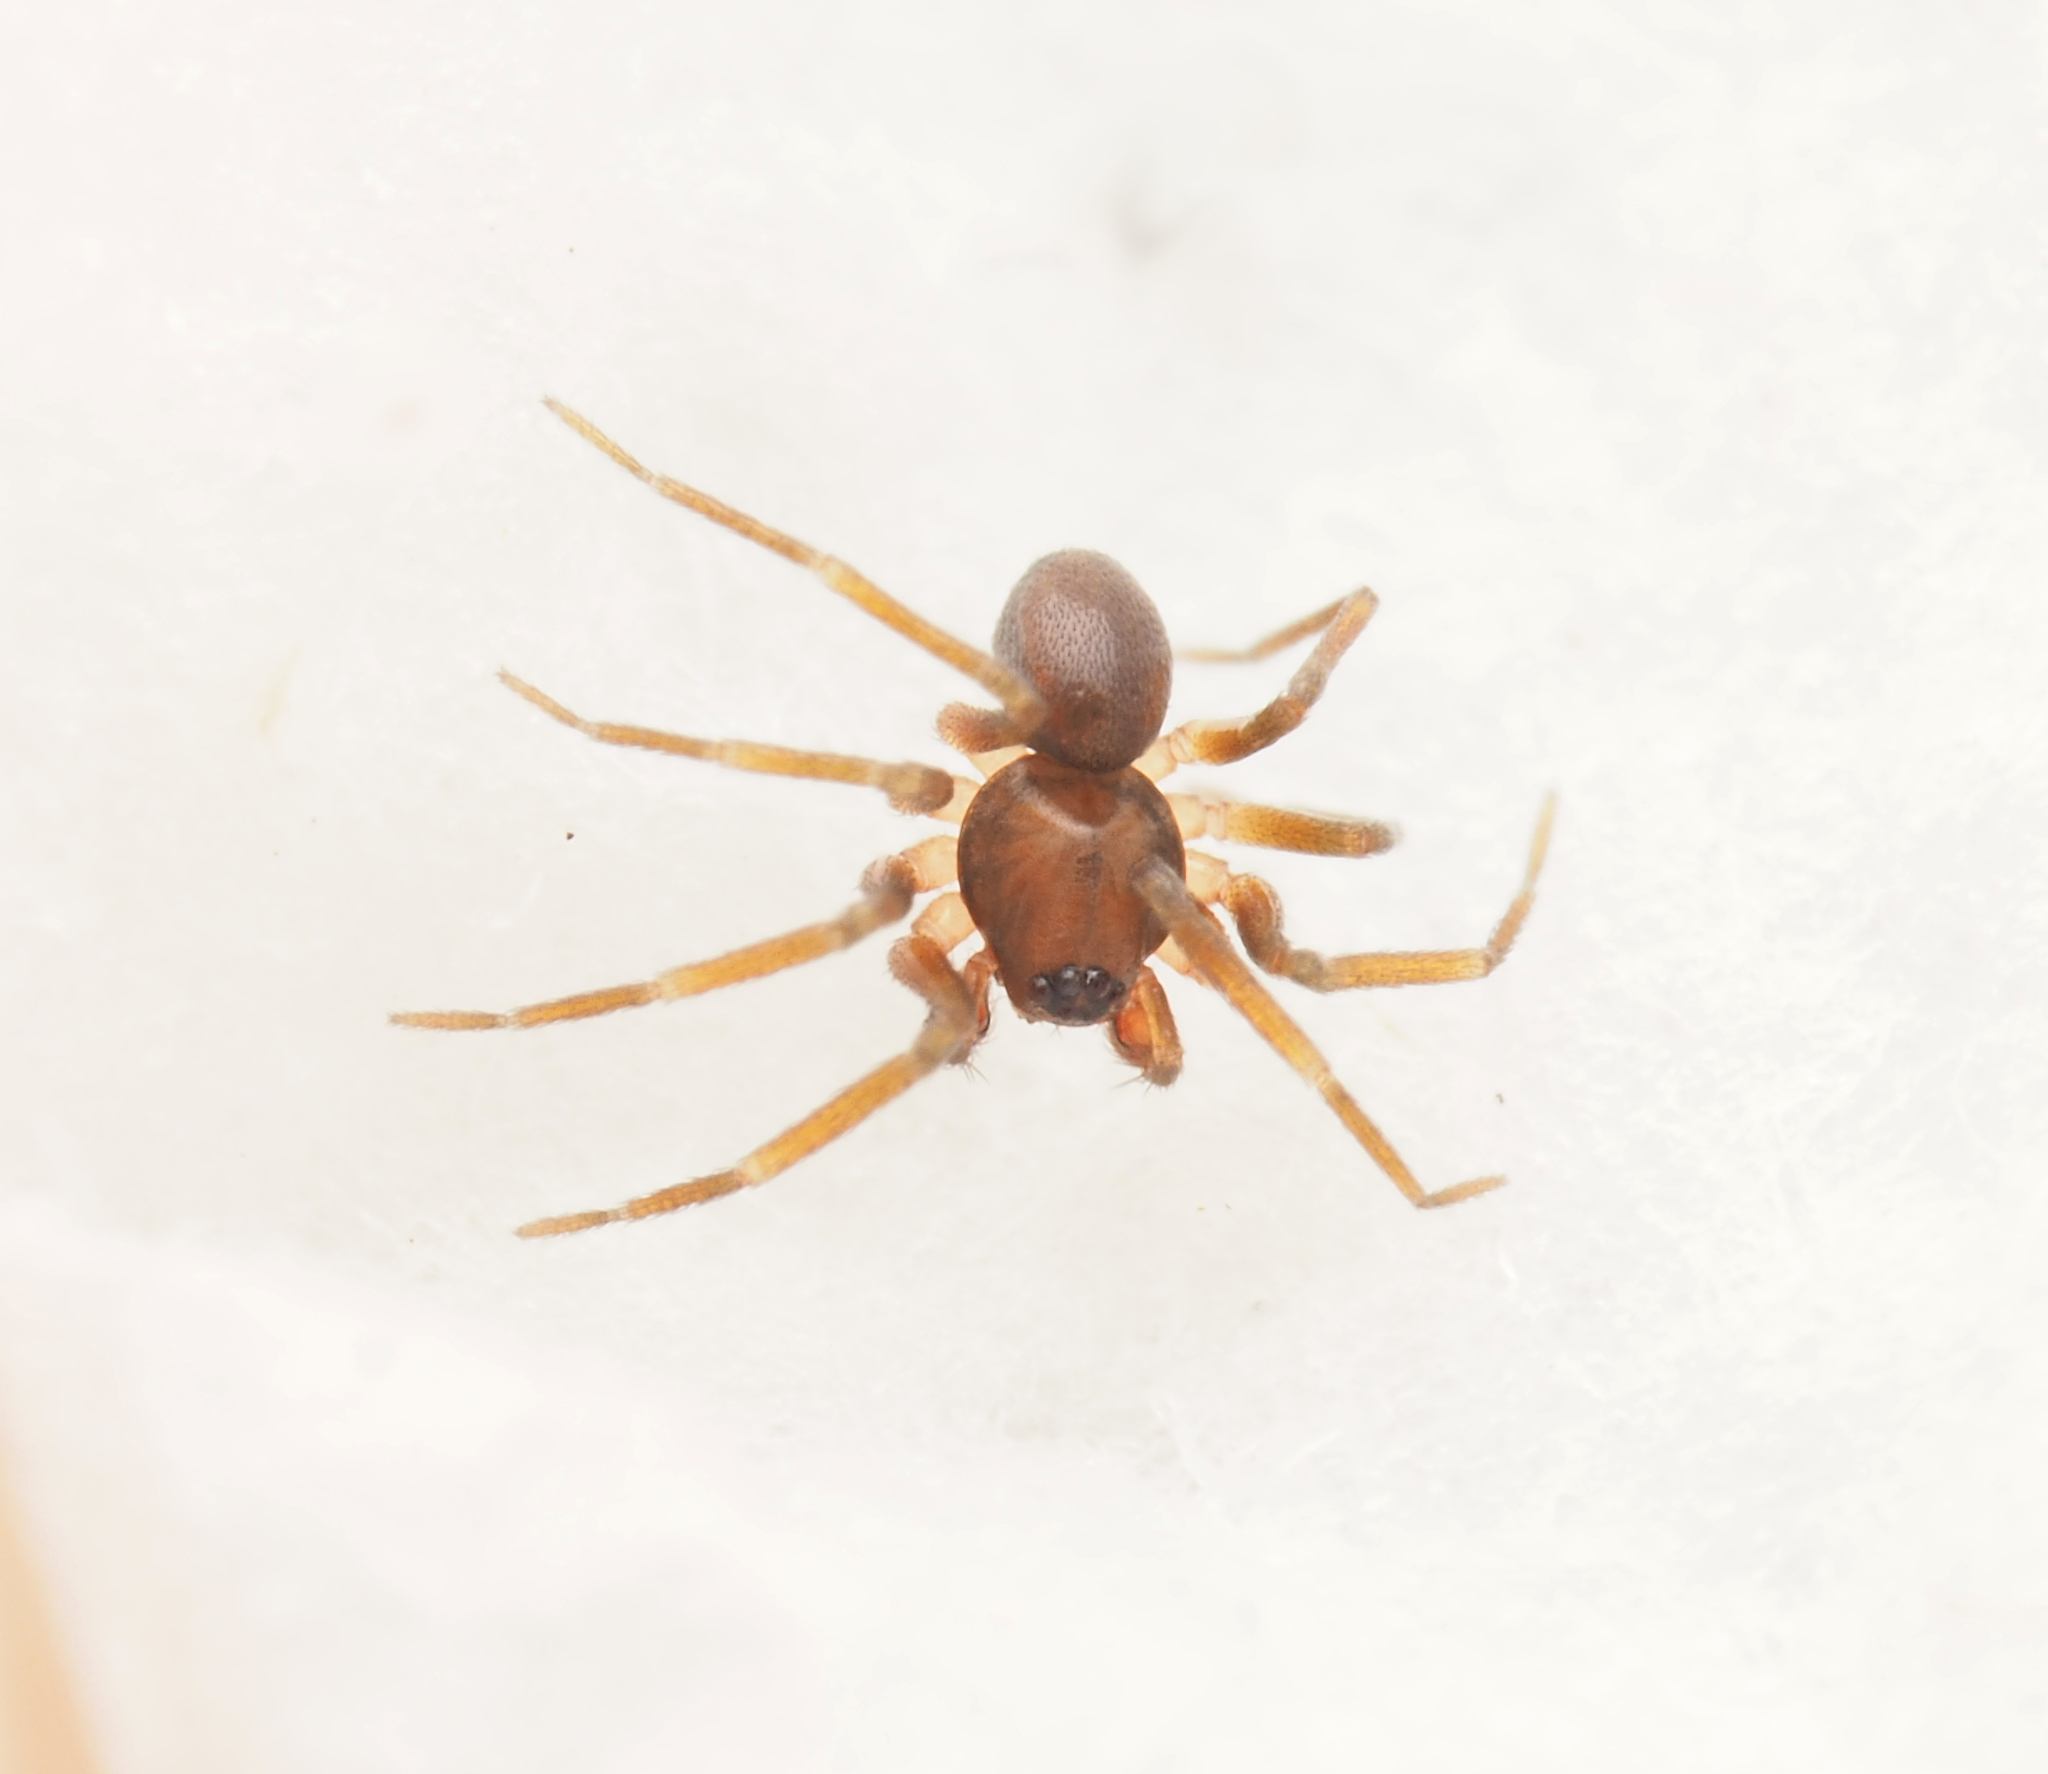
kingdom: Animalia
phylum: Arthropoda
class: Arachnida
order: Araneae
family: Toxopidae
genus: Midgee
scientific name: Midgee
